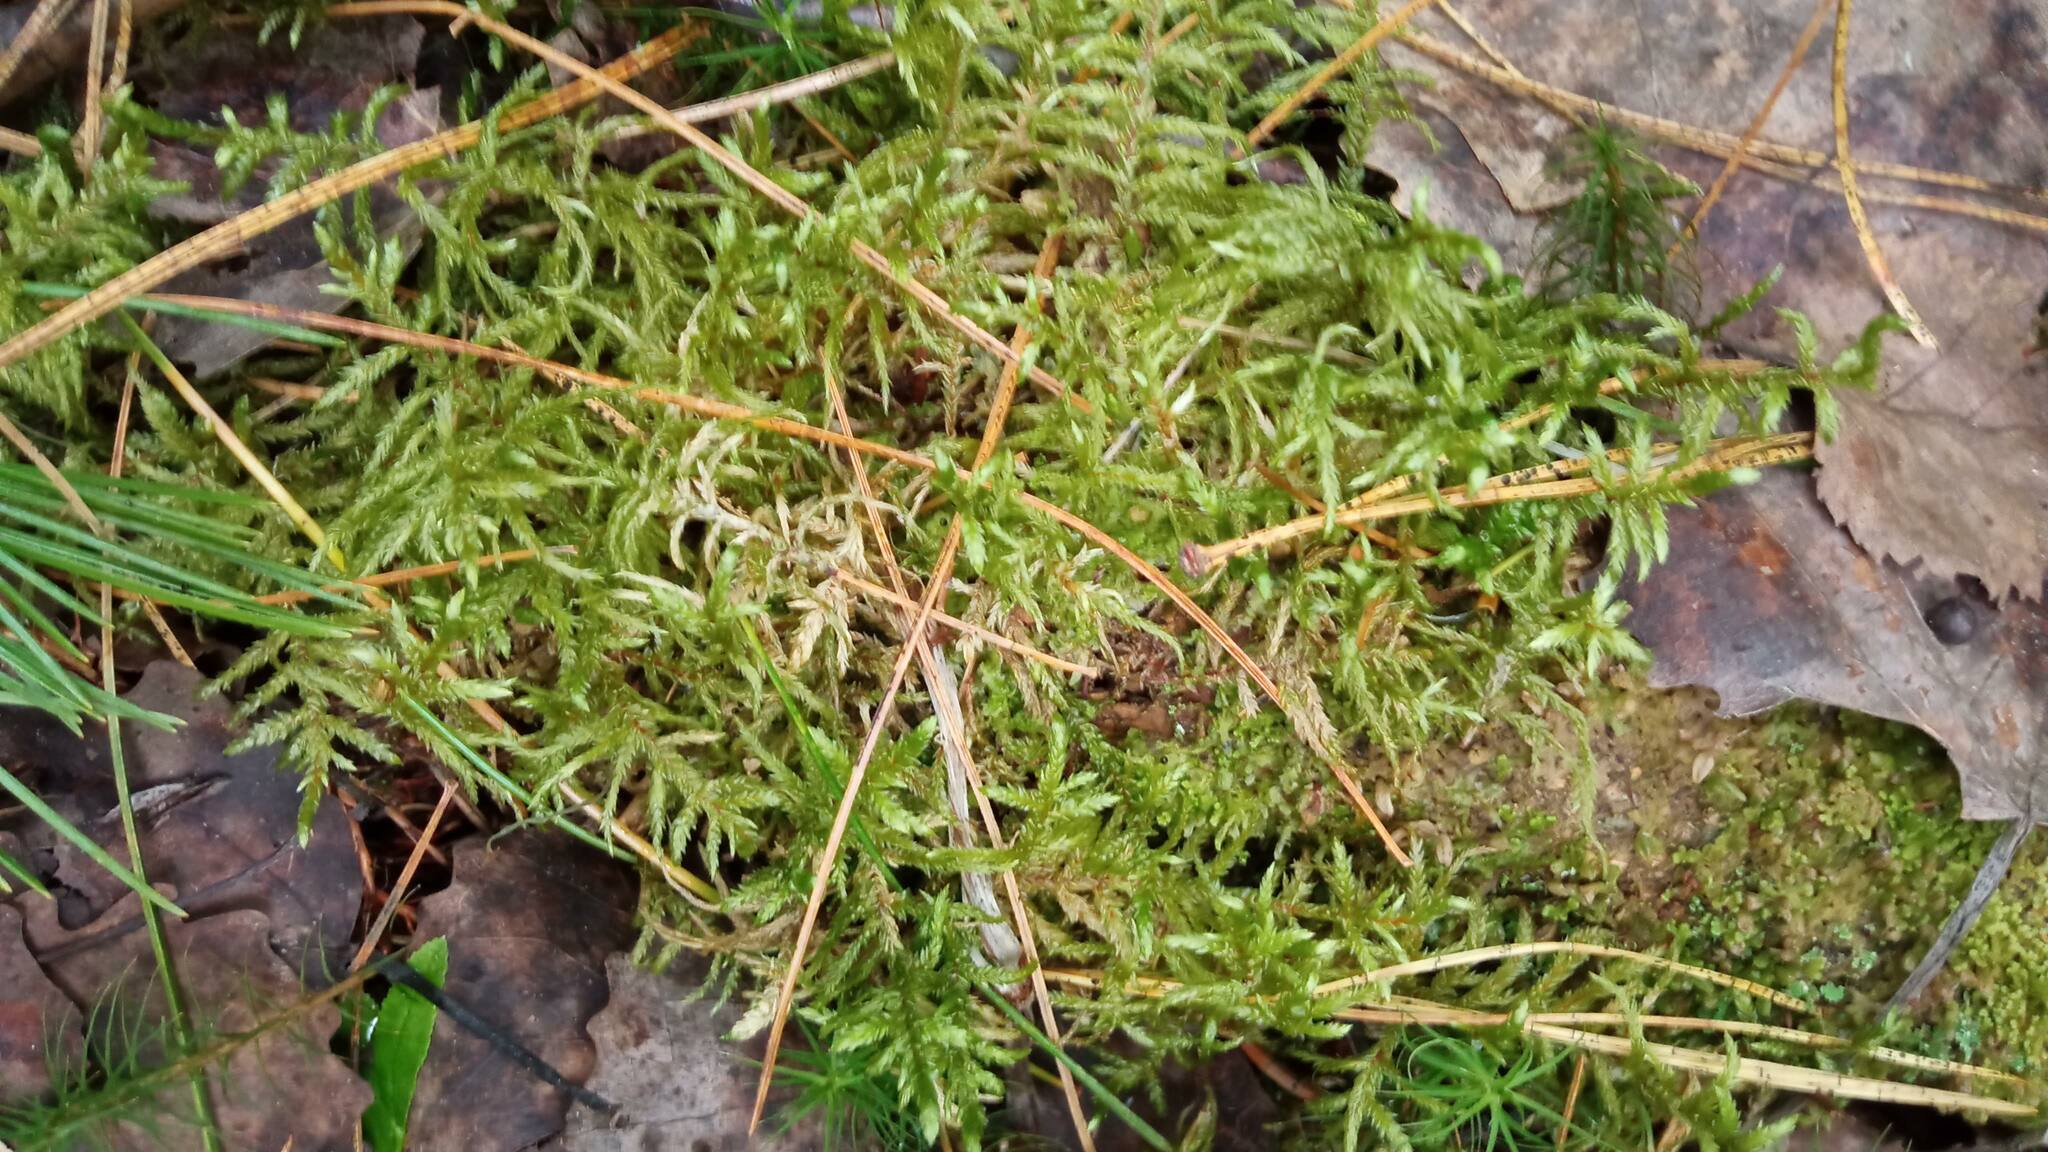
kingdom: Plantae
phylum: Bryophyta
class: Bryopsida
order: Hypnales
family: Hylocomiaceae
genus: Pleurozium
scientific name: Pleurozium schreberi
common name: Red-stemmed feather moss
